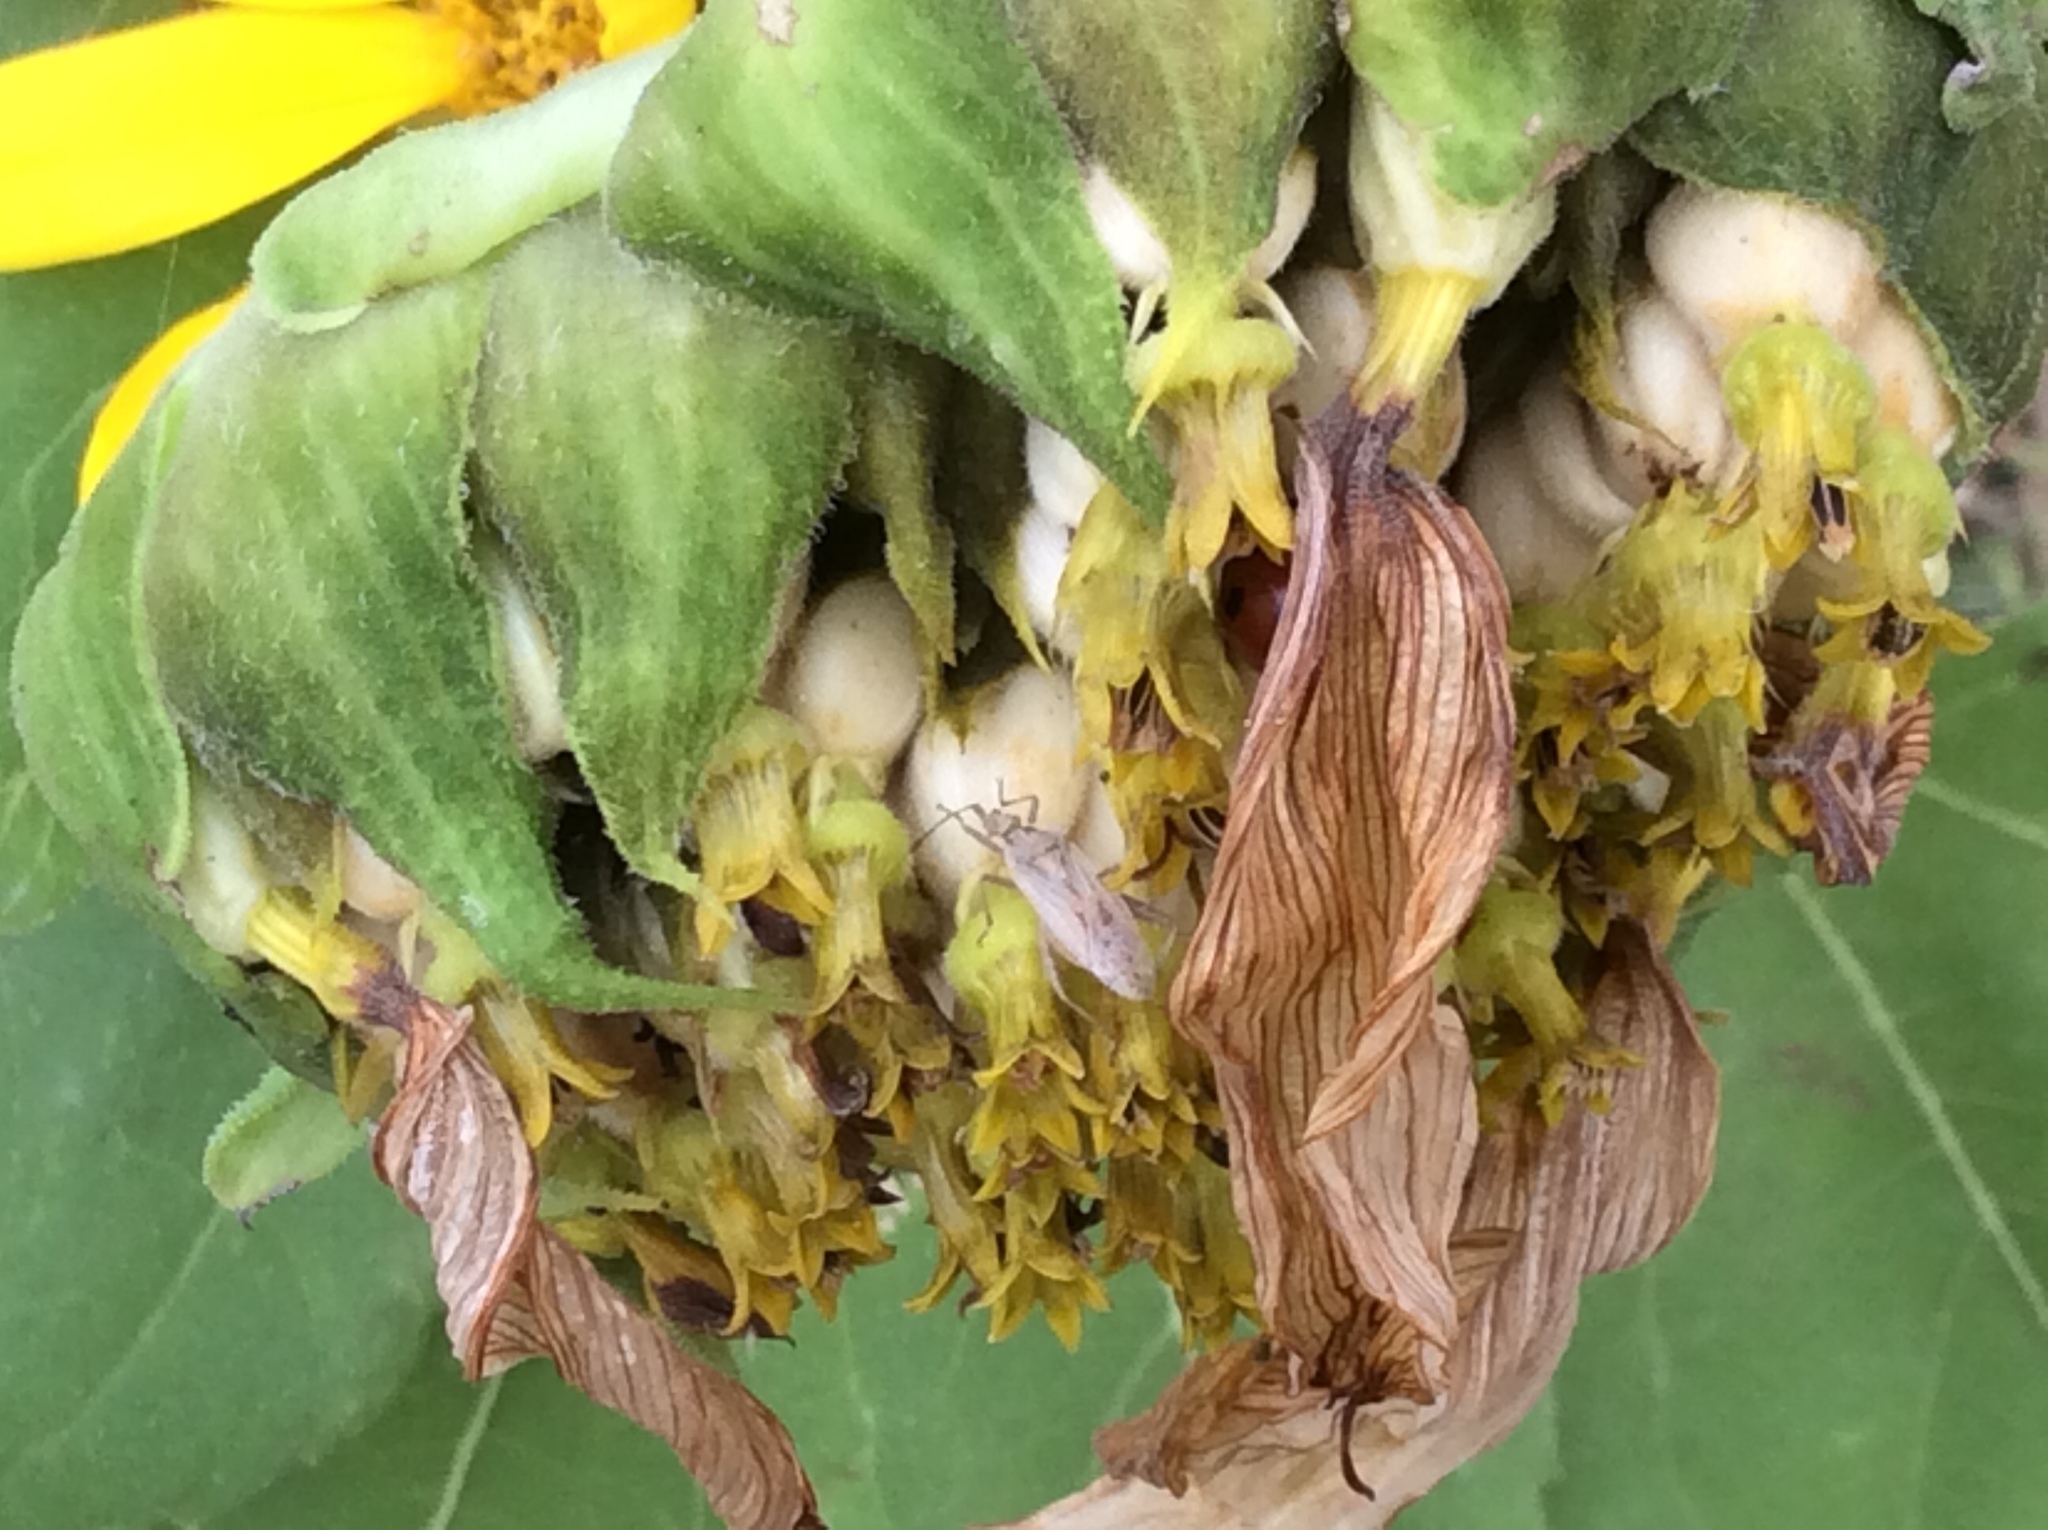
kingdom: Plantae
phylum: Tracheophyta
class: Magnoliopsida
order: Asterales
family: Asteraceae
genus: Helianthus
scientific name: Helianthus annuus
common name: Sunflower
